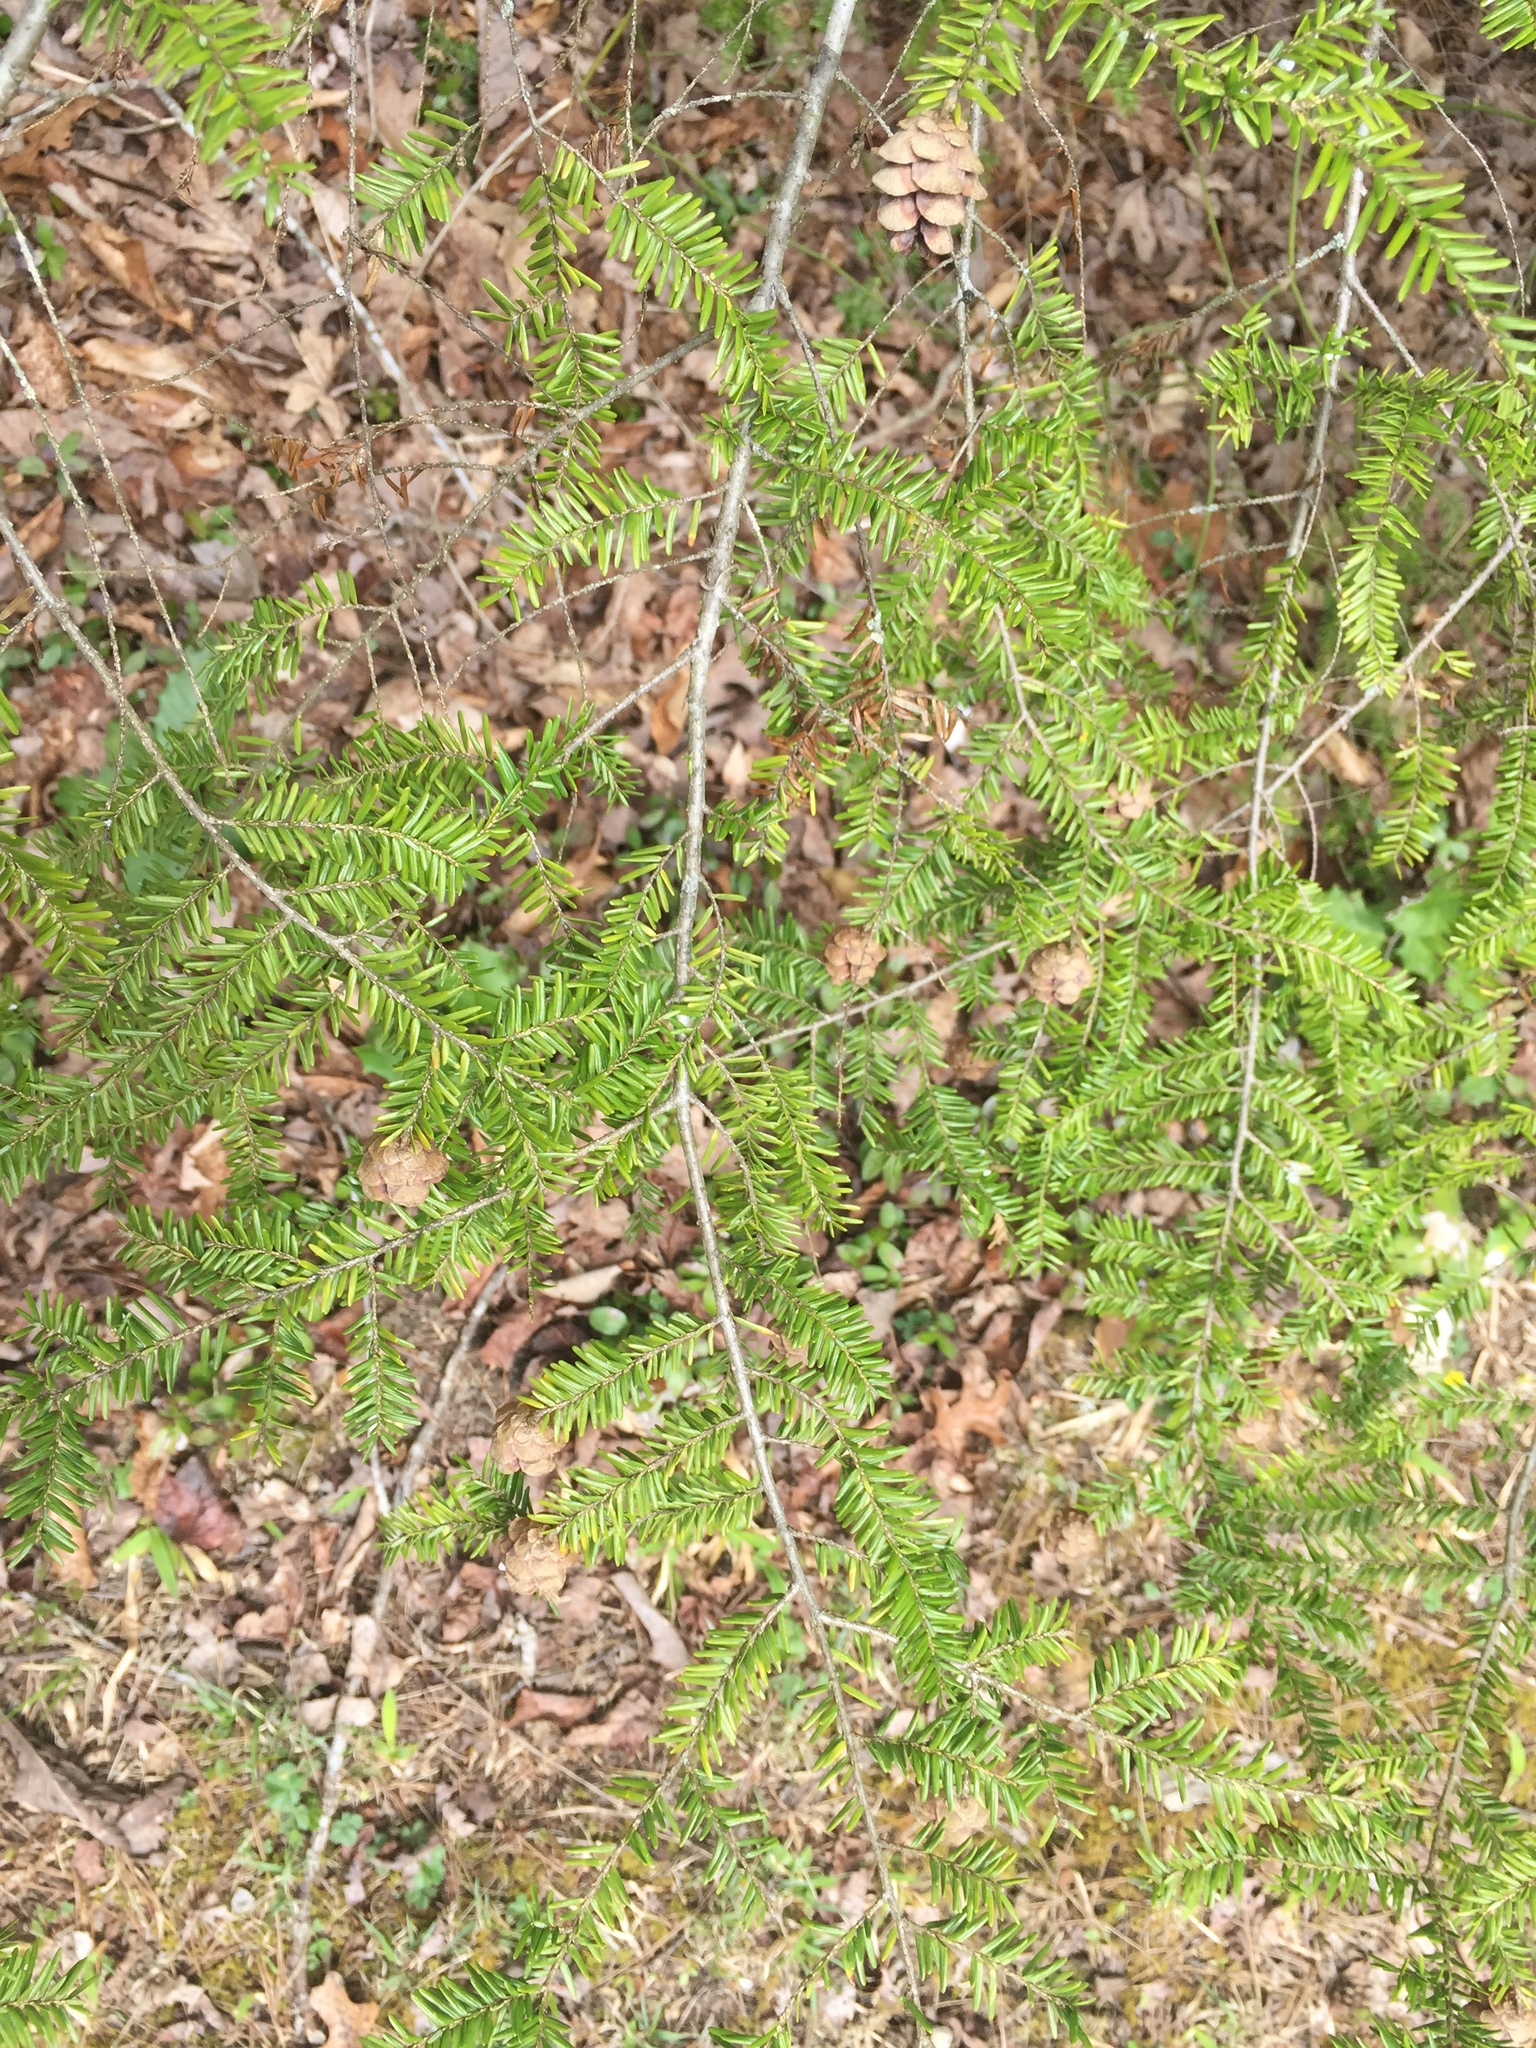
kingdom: Plantae
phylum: Tracheophyta
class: Pinopsida
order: Pinales
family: Pinaceae
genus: Tsuga
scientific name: Tsuga canadensis
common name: Eastern hemlock
